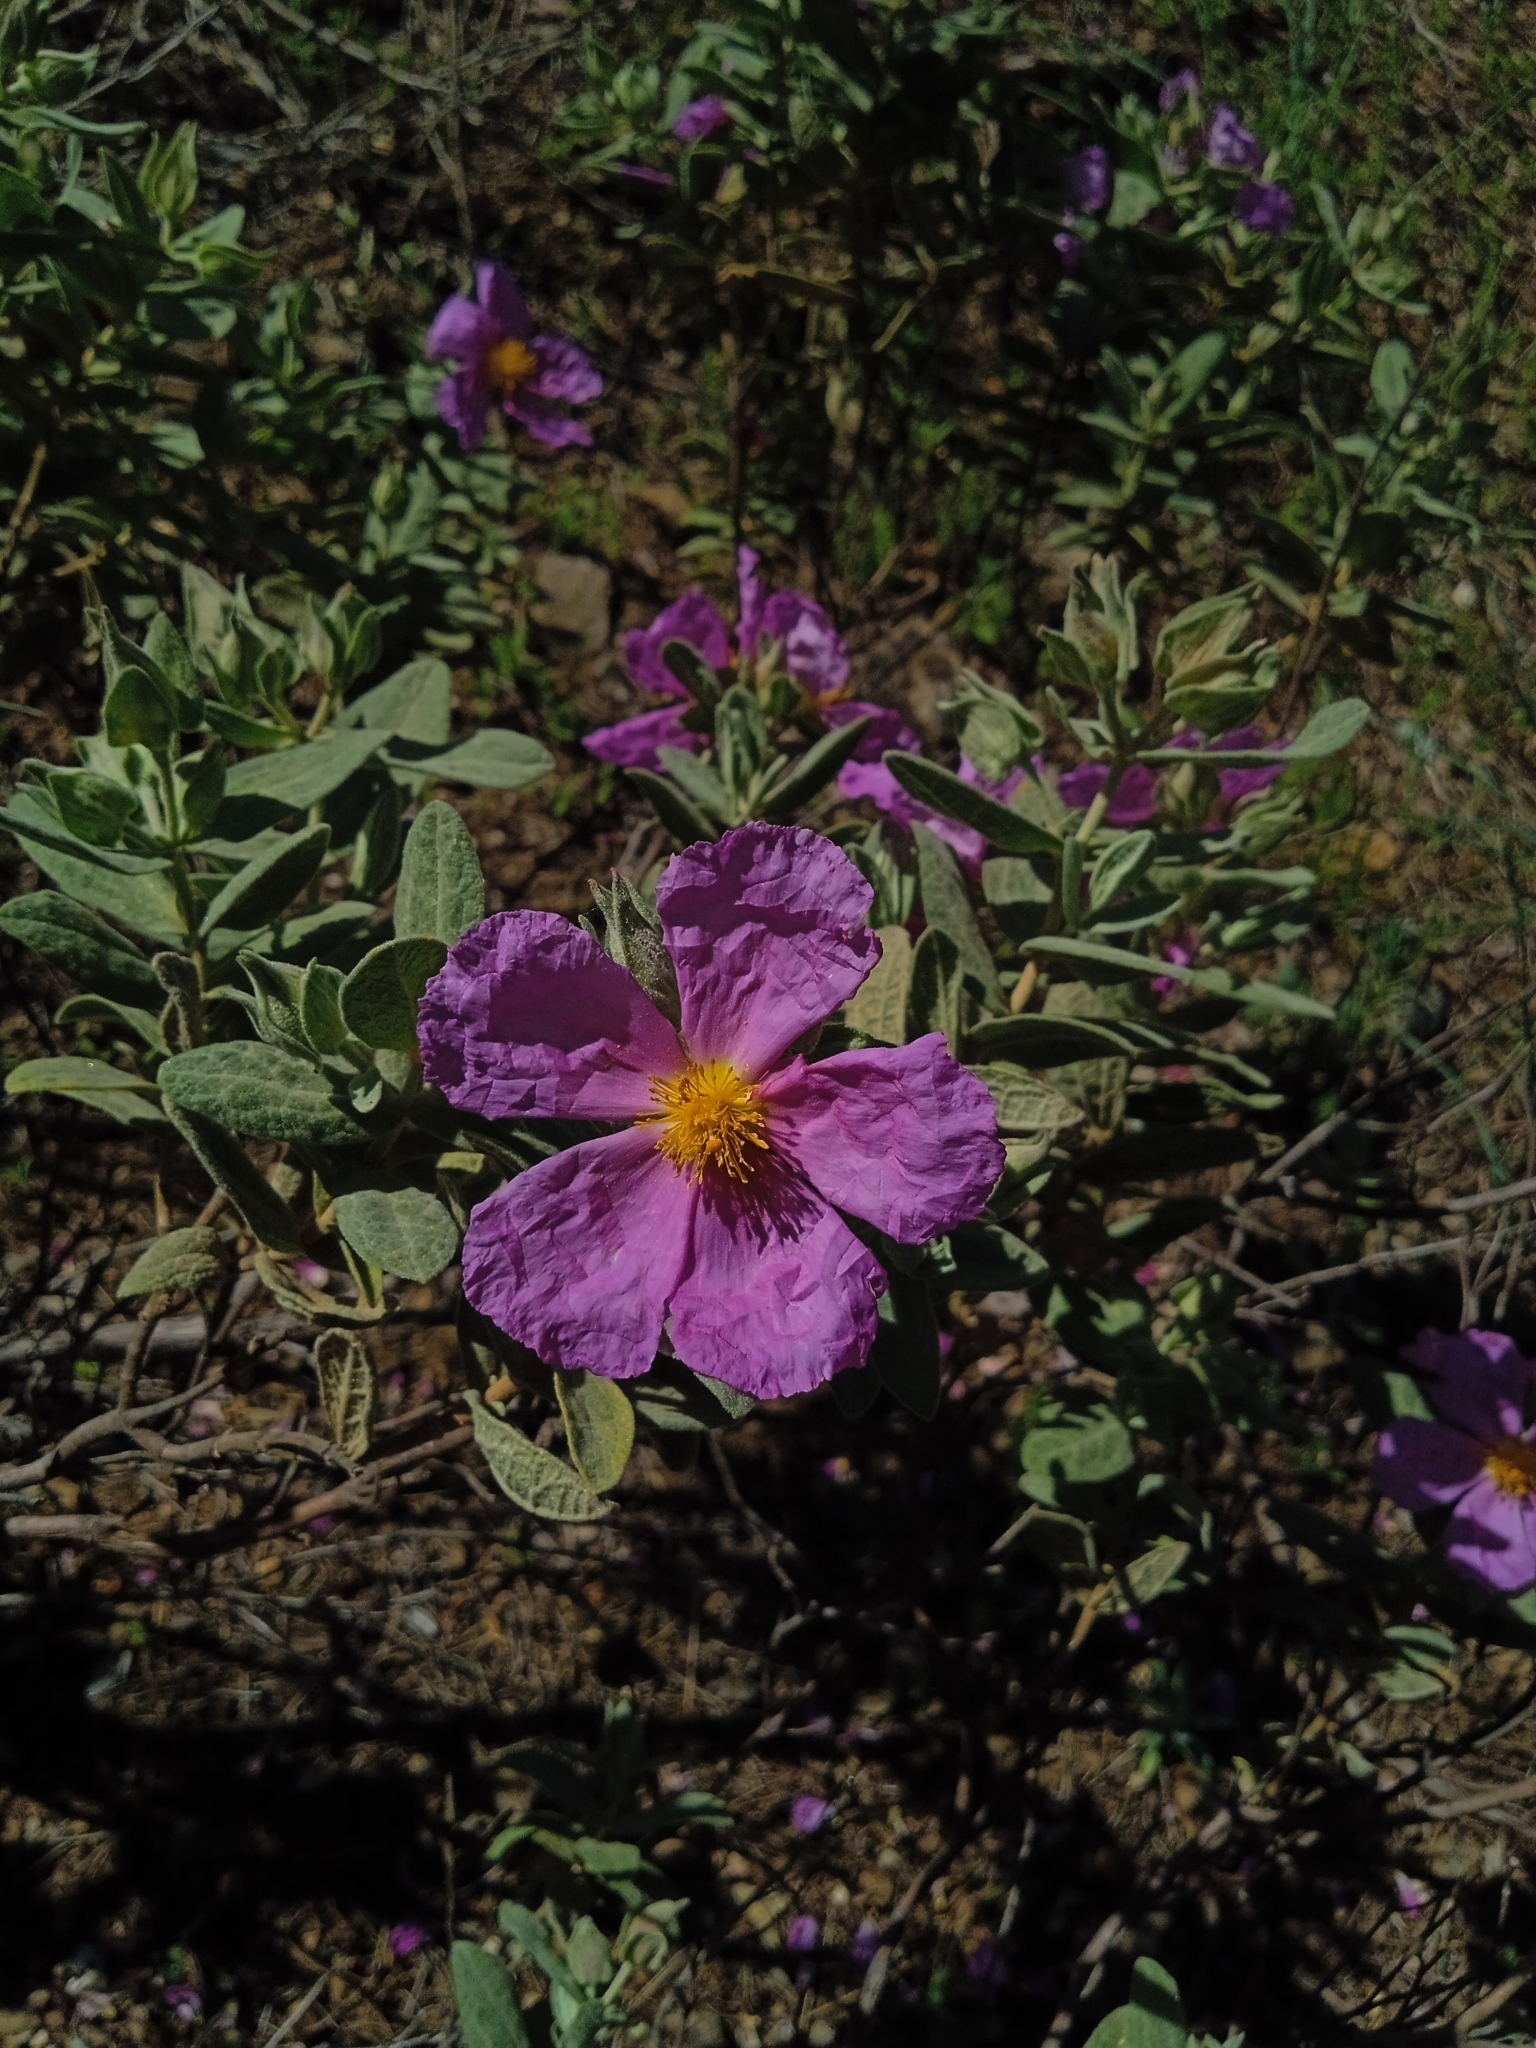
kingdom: Plantae
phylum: Tracheophyta
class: Magnoliopsida
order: Malvales
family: Cistaceae
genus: Cistus
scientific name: Cistus albidus
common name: White-leaf rock-rose
